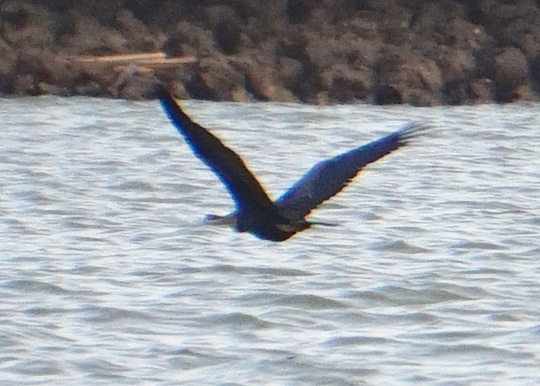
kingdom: Animalia
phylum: Chordata
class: Aves
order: Suliformes
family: Anhingidae
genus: Anhinga
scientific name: Anhinga rufa
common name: African darter
